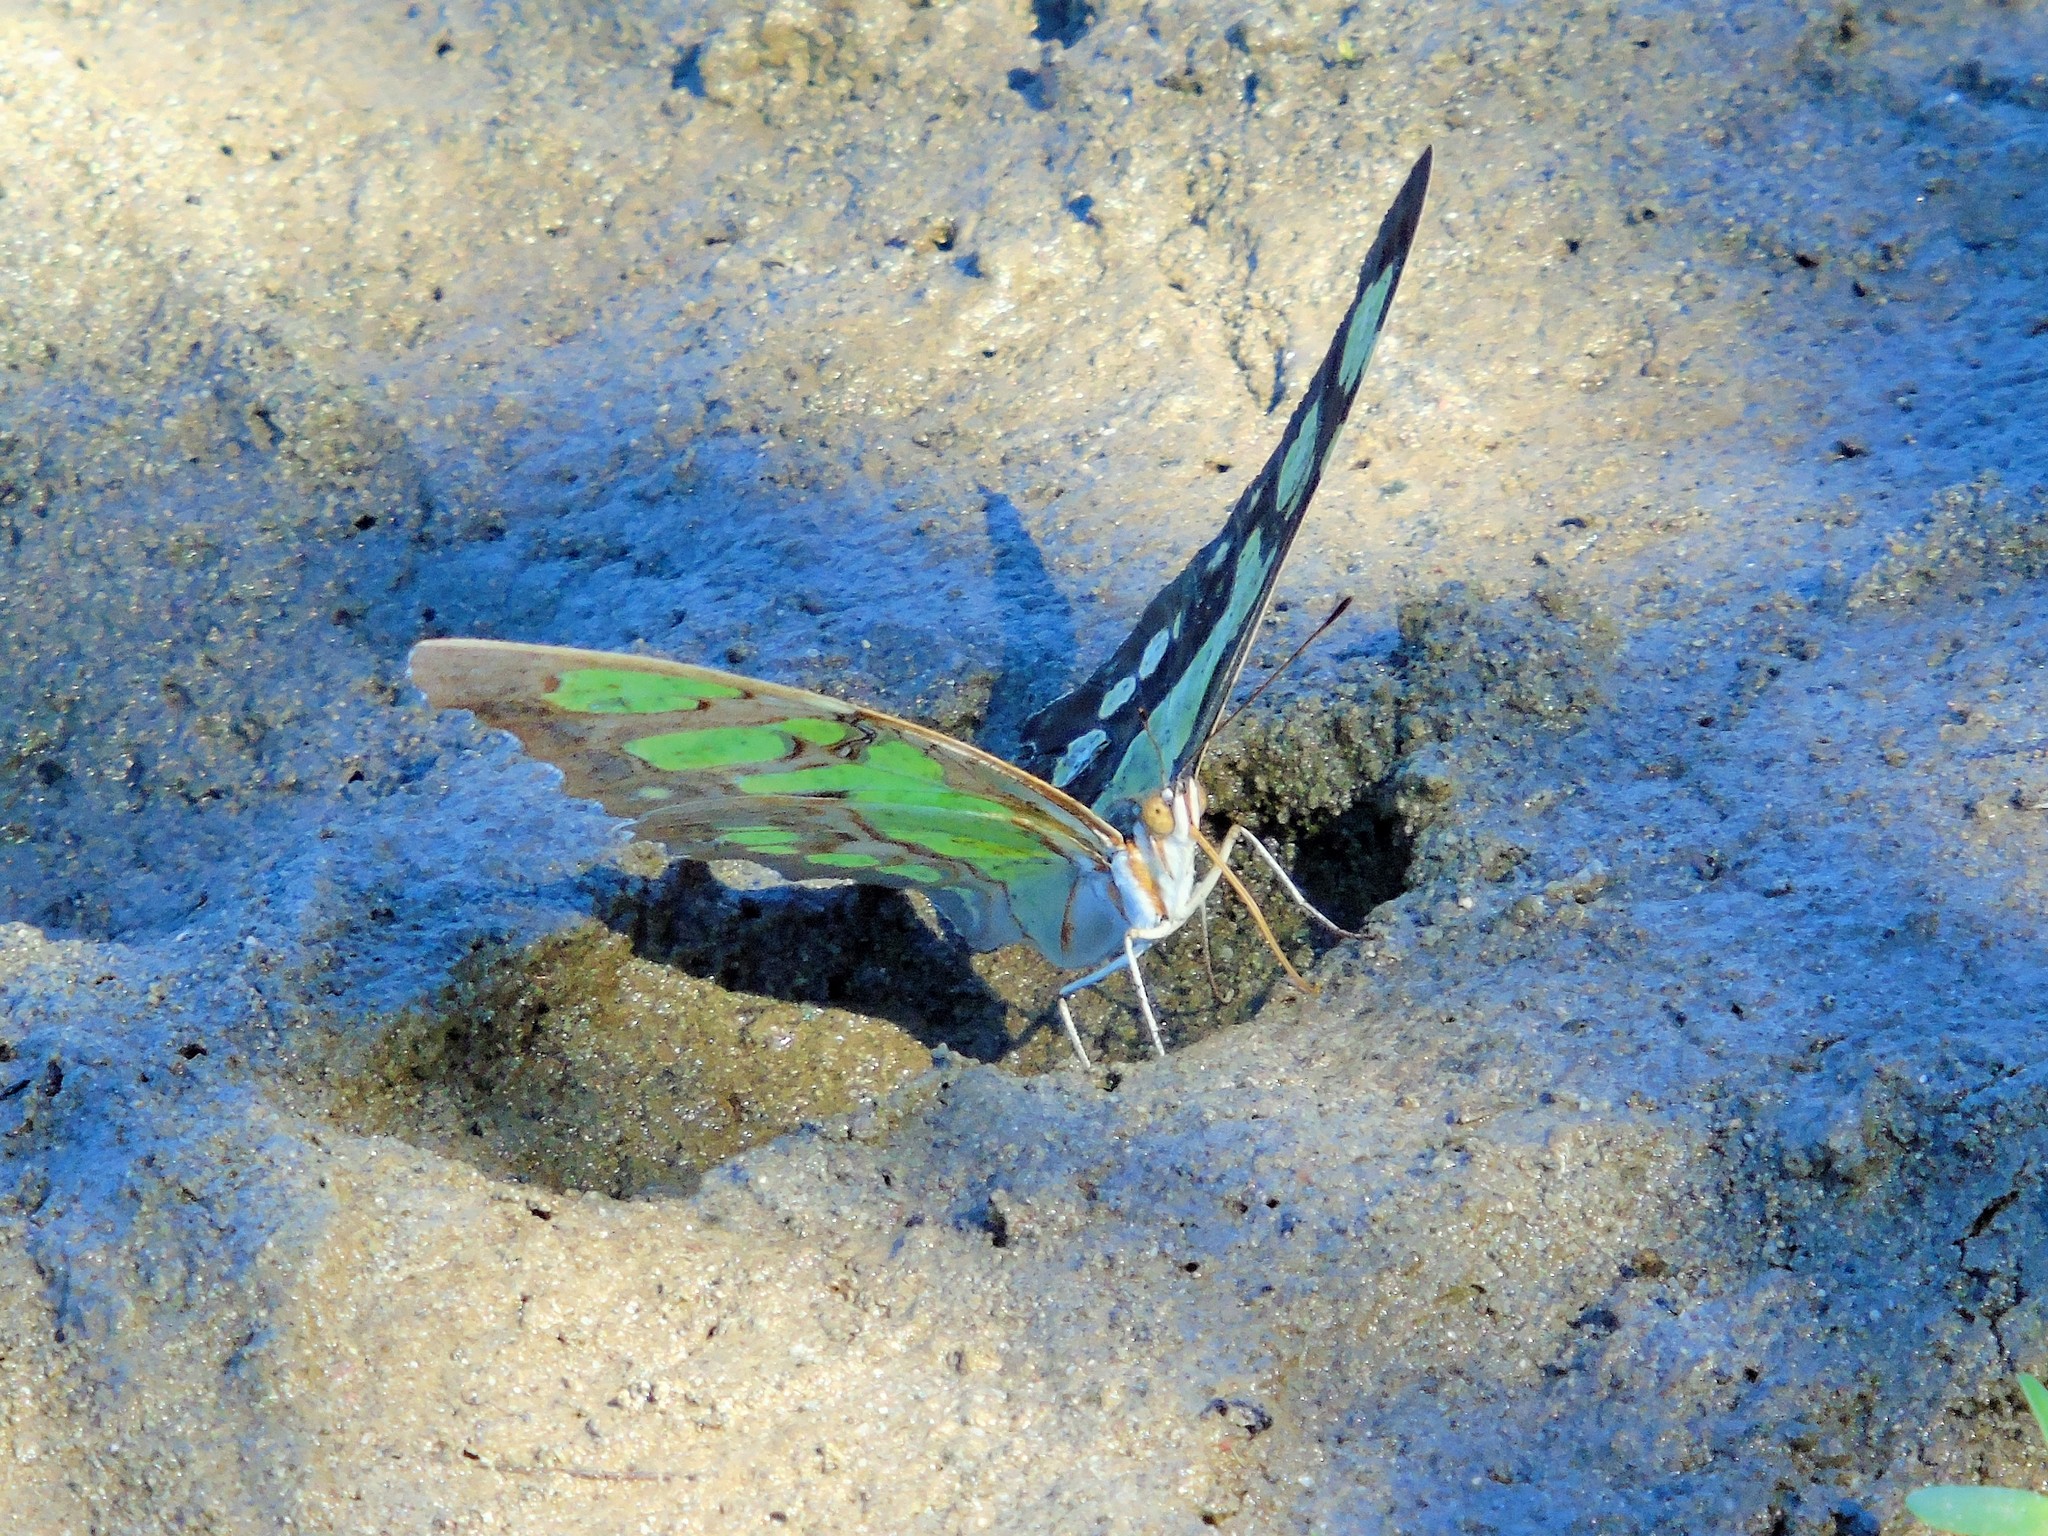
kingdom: Animalia
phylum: Arthropoda
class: Insecta
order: Lepidoptera
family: Nymphalidae
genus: Siproeta
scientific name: Siproeta stelenes
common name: Malachite
